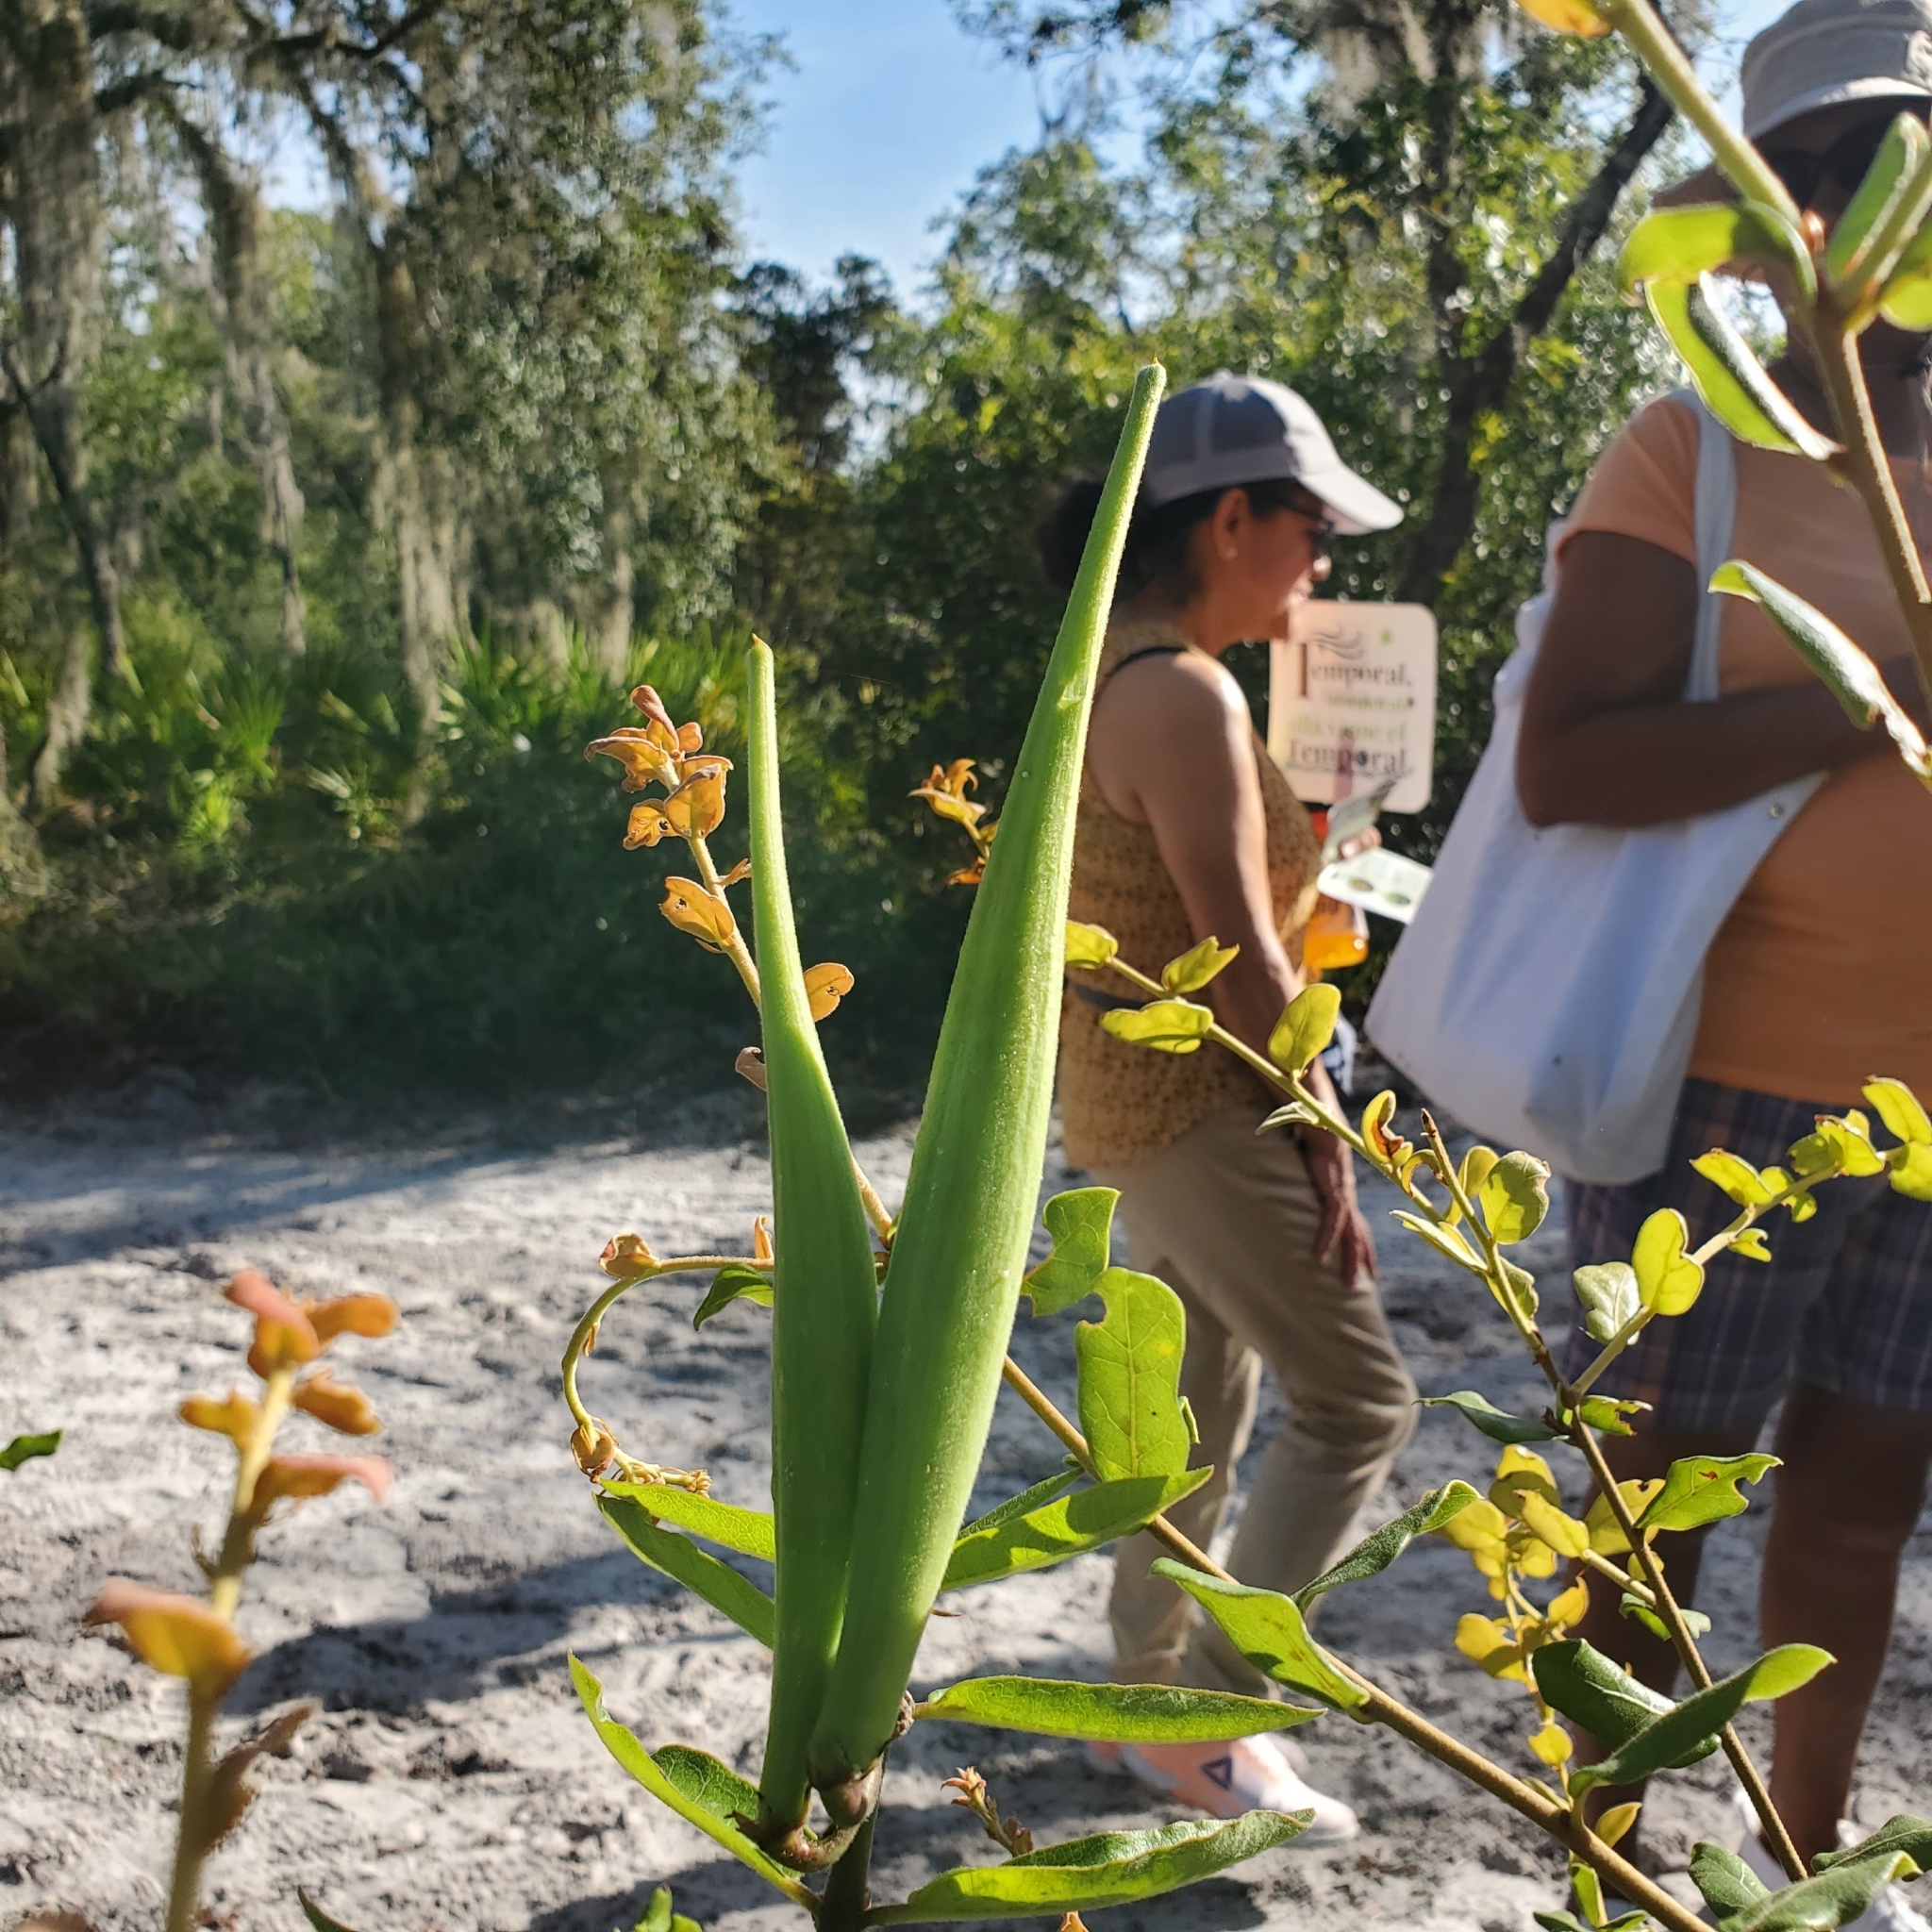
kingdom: Plantae
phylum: Tracheophyta
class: Magnoliopsida
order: Gentianales
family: Apocynaceae
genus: Asclepias
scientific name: Asclepias tomentosa
